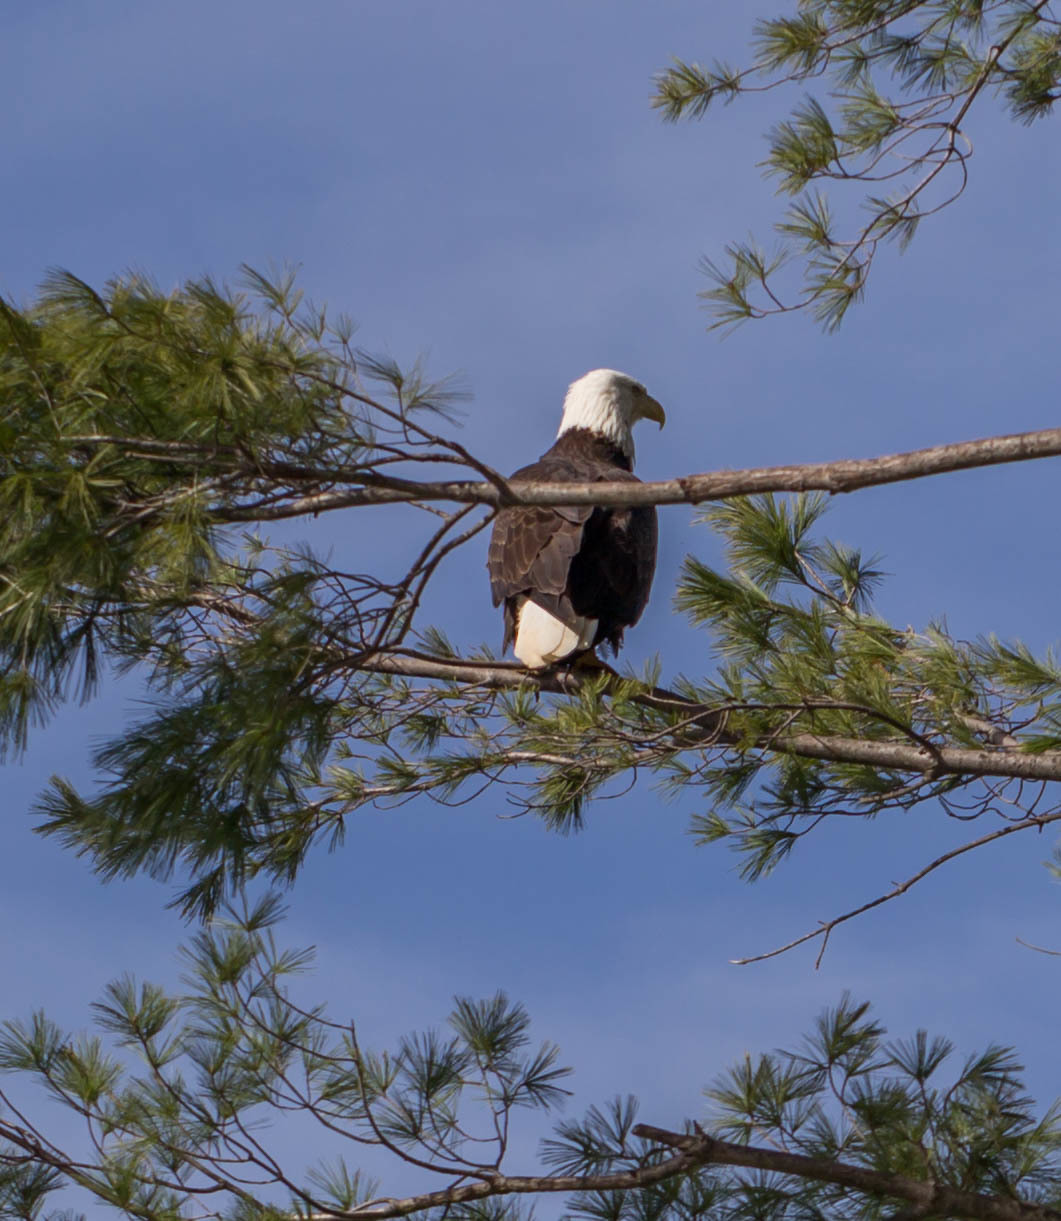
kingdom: Animalia
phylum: Chordata
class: Aves
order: Accipitriformes
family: Accipitridae
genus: Haliaeetus
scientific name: Haliaeetus leucocephalus
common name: Bald eagle
